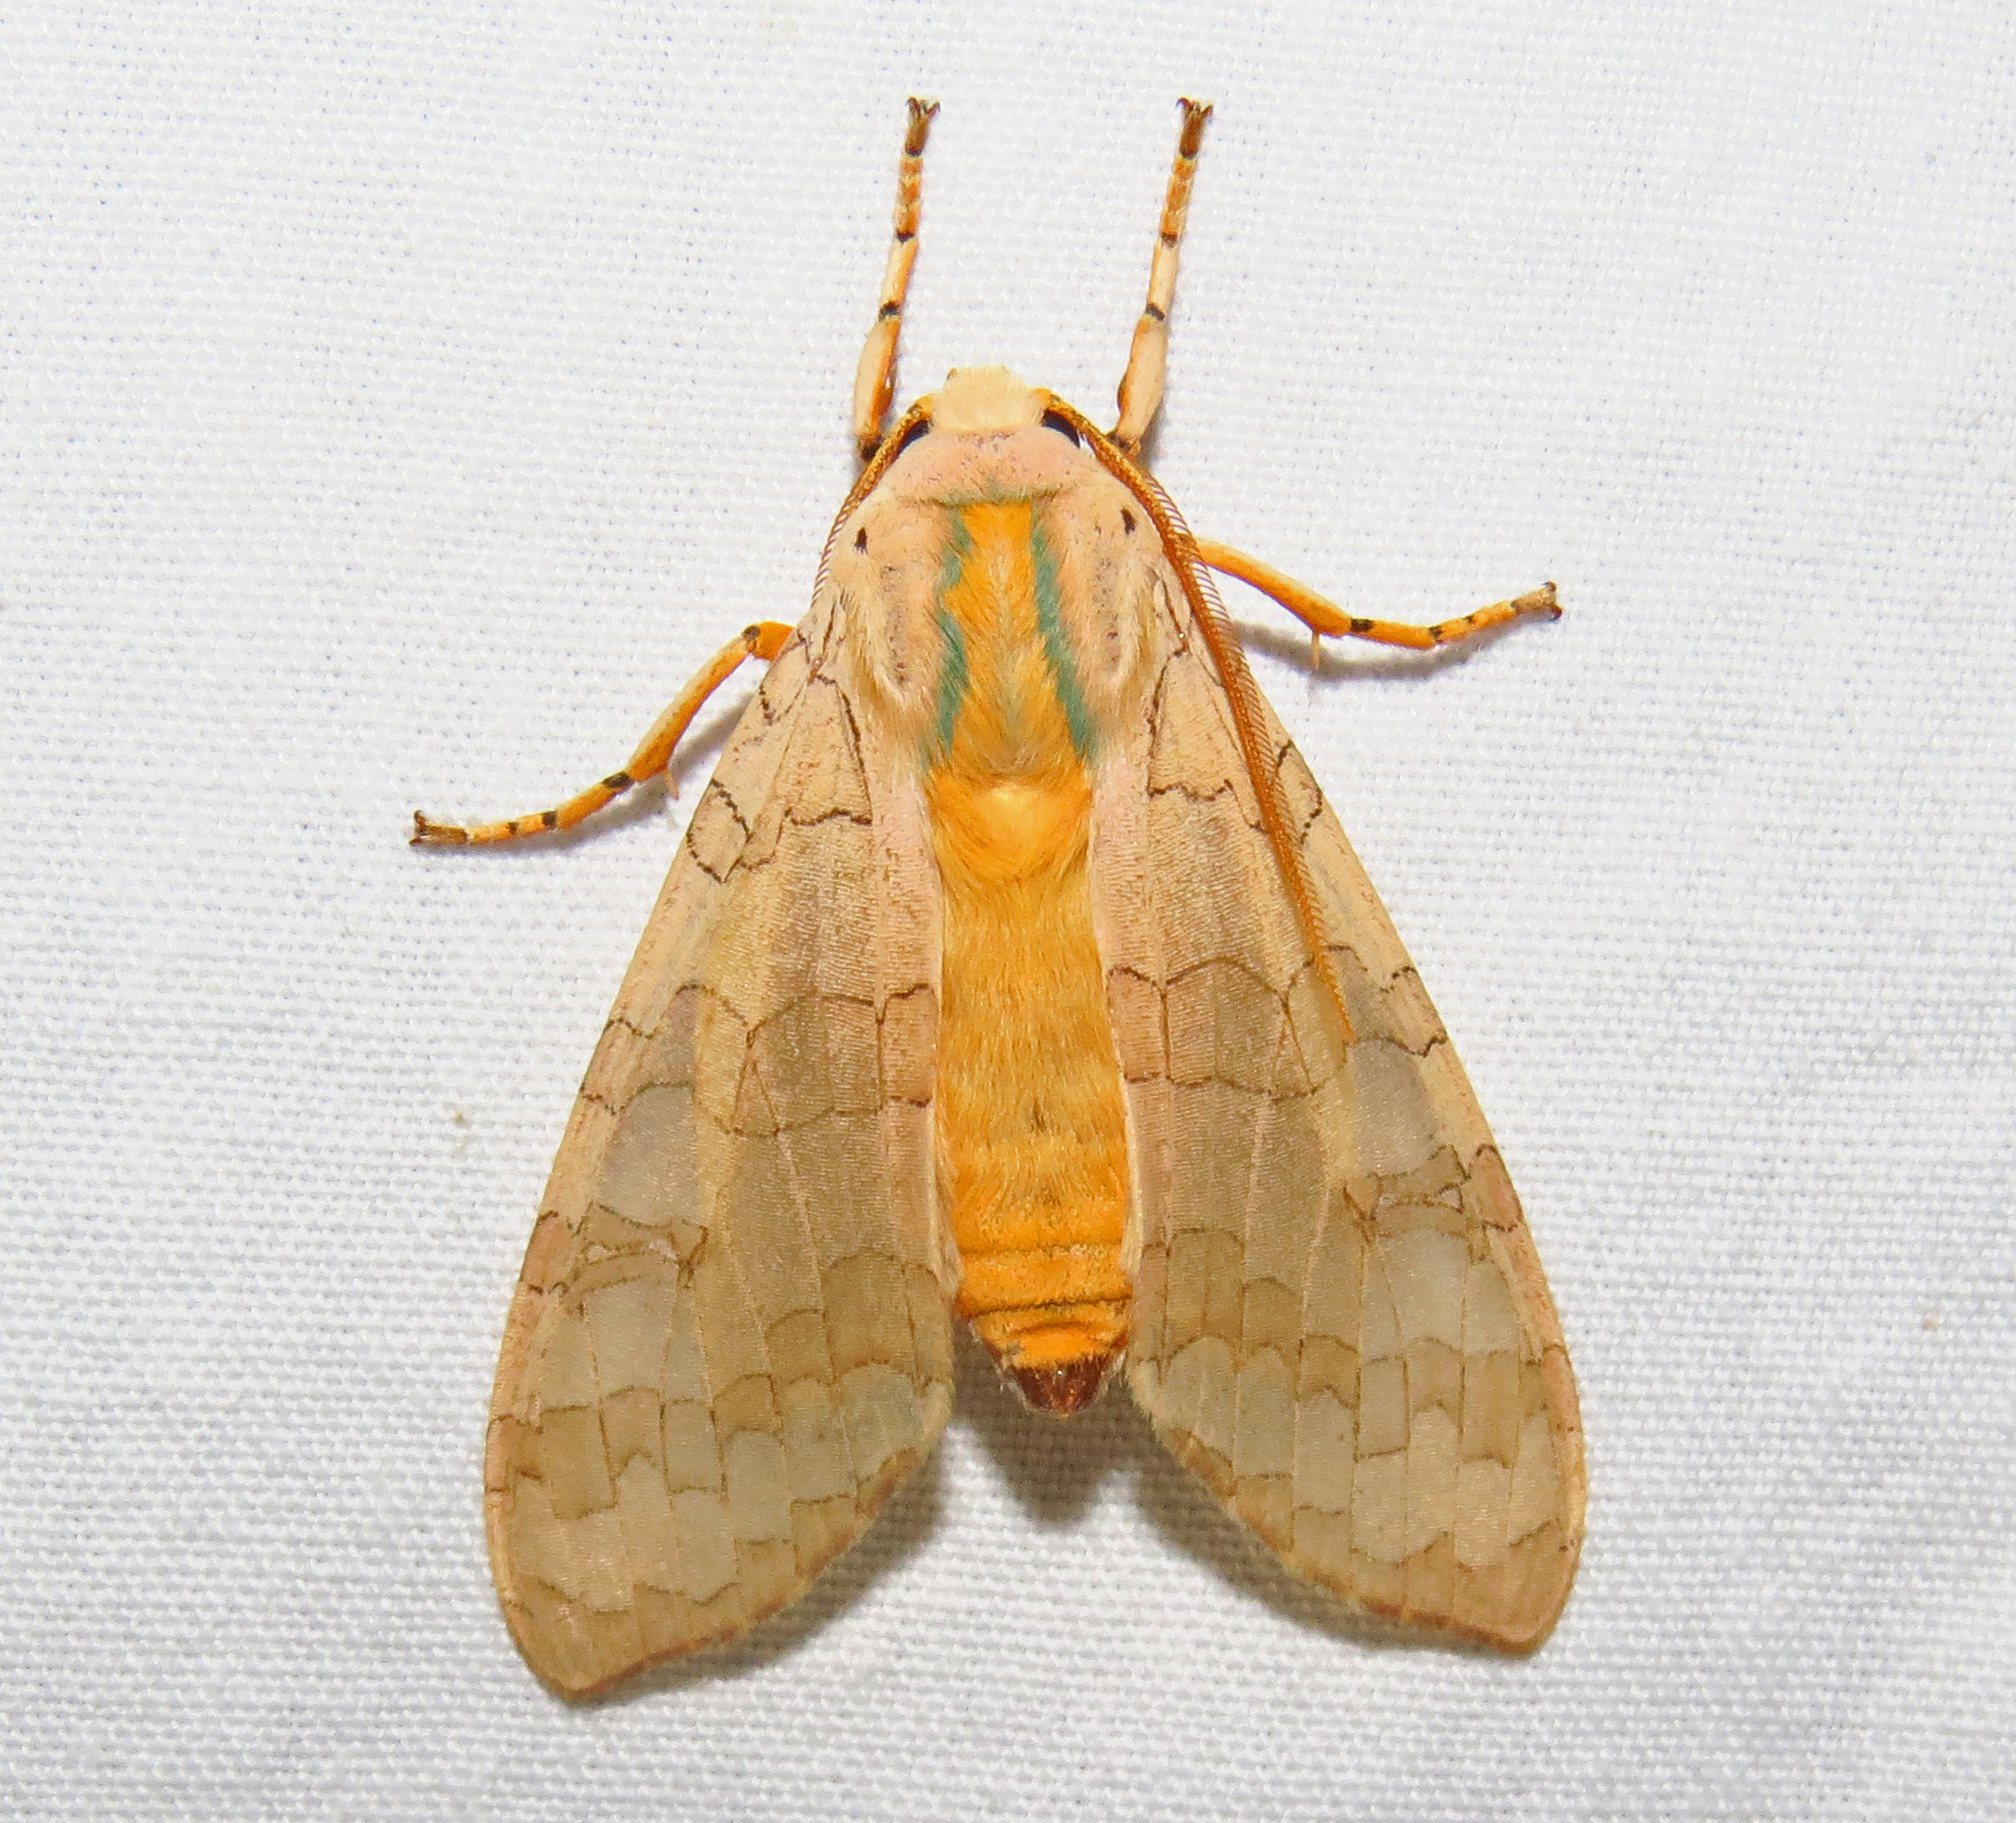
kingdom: Animalia
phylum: Arthropoda
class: Insecta
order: Lepidoptera
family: Erebidae
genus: Halysidota
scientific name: Halysidota
